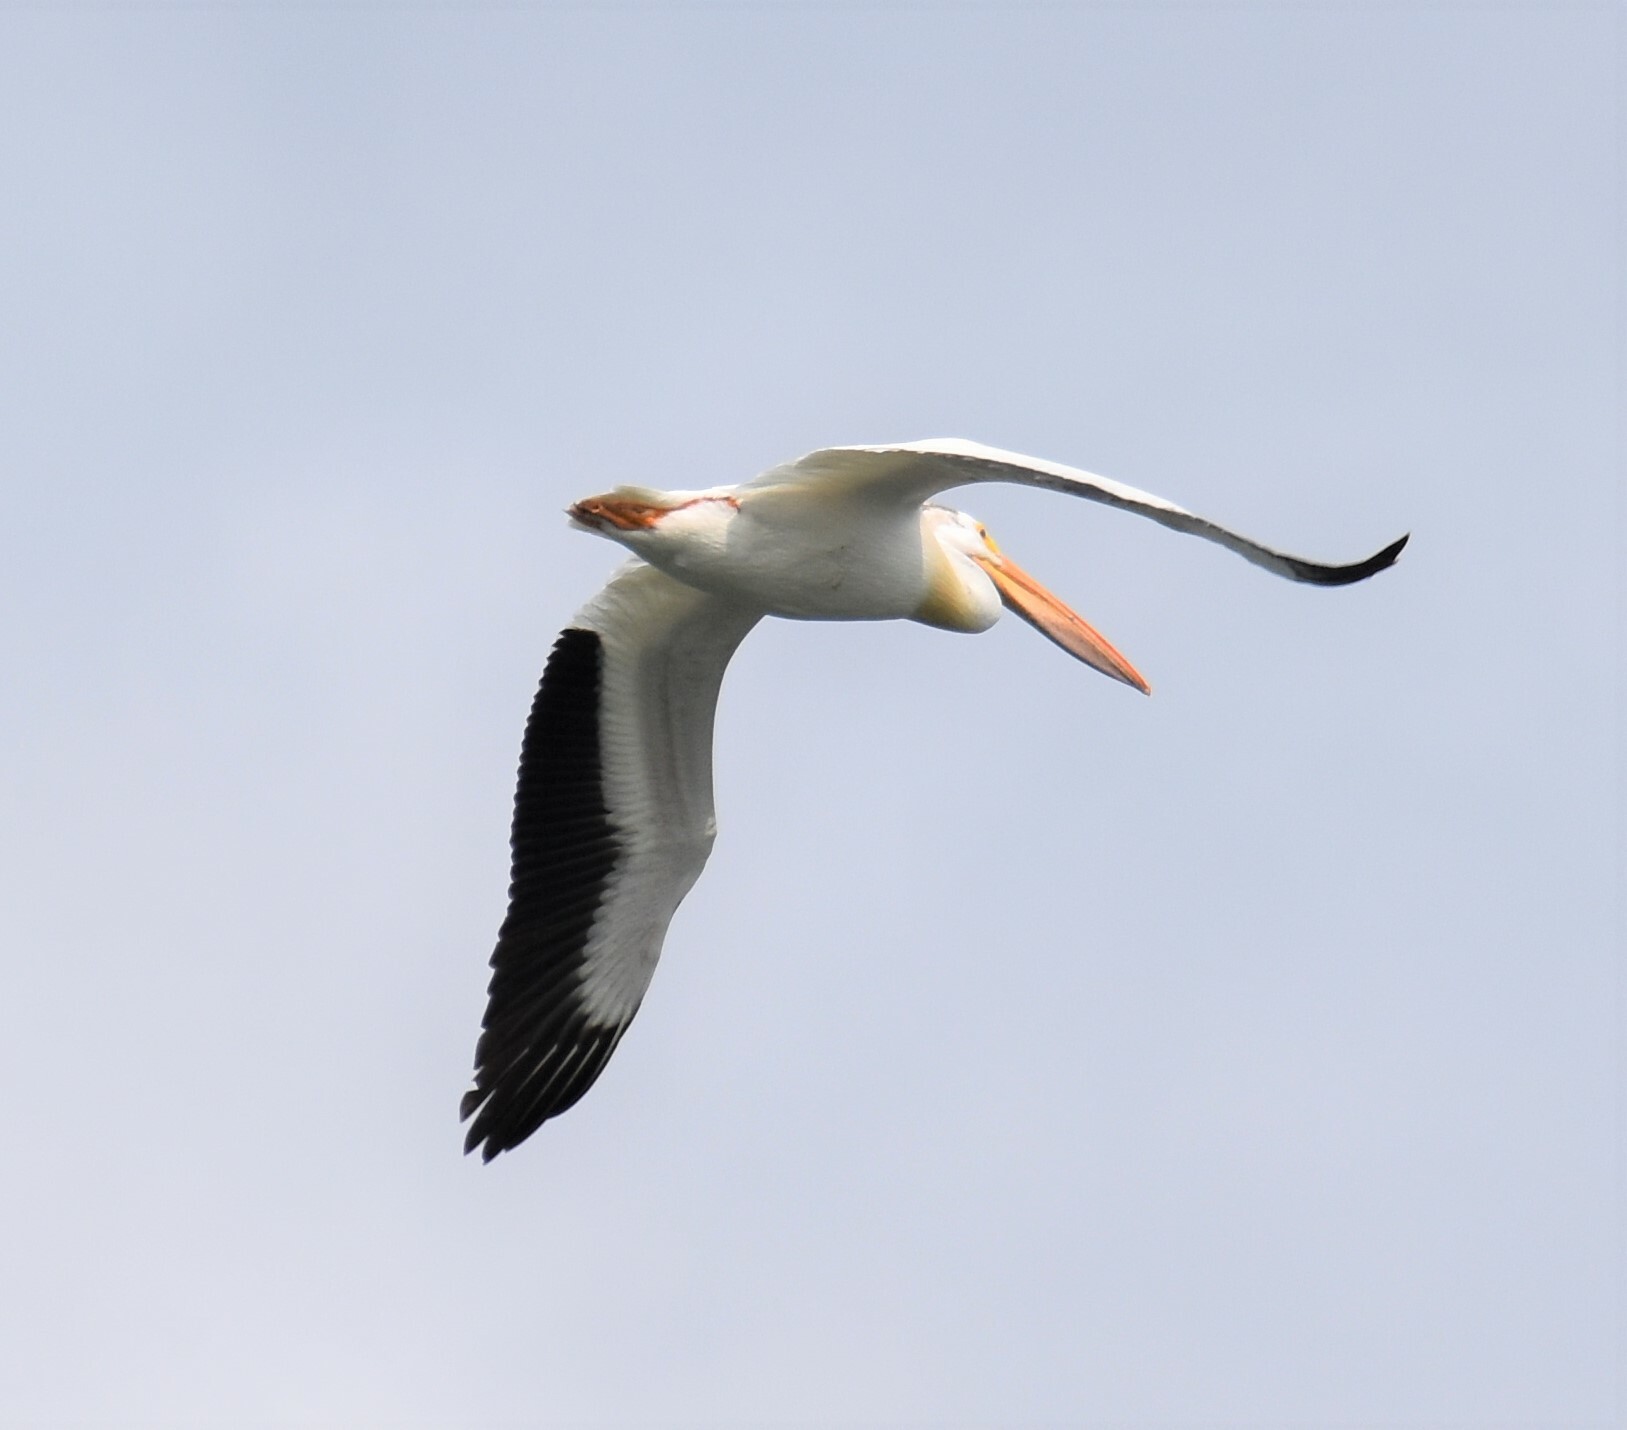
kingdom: Animalia
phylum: Chordata
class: Aves
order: Pelecaniformes
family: Pelecanidae
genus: Pelecanus
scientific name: Pelecanus erythrorhynchos
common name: American white pelican
